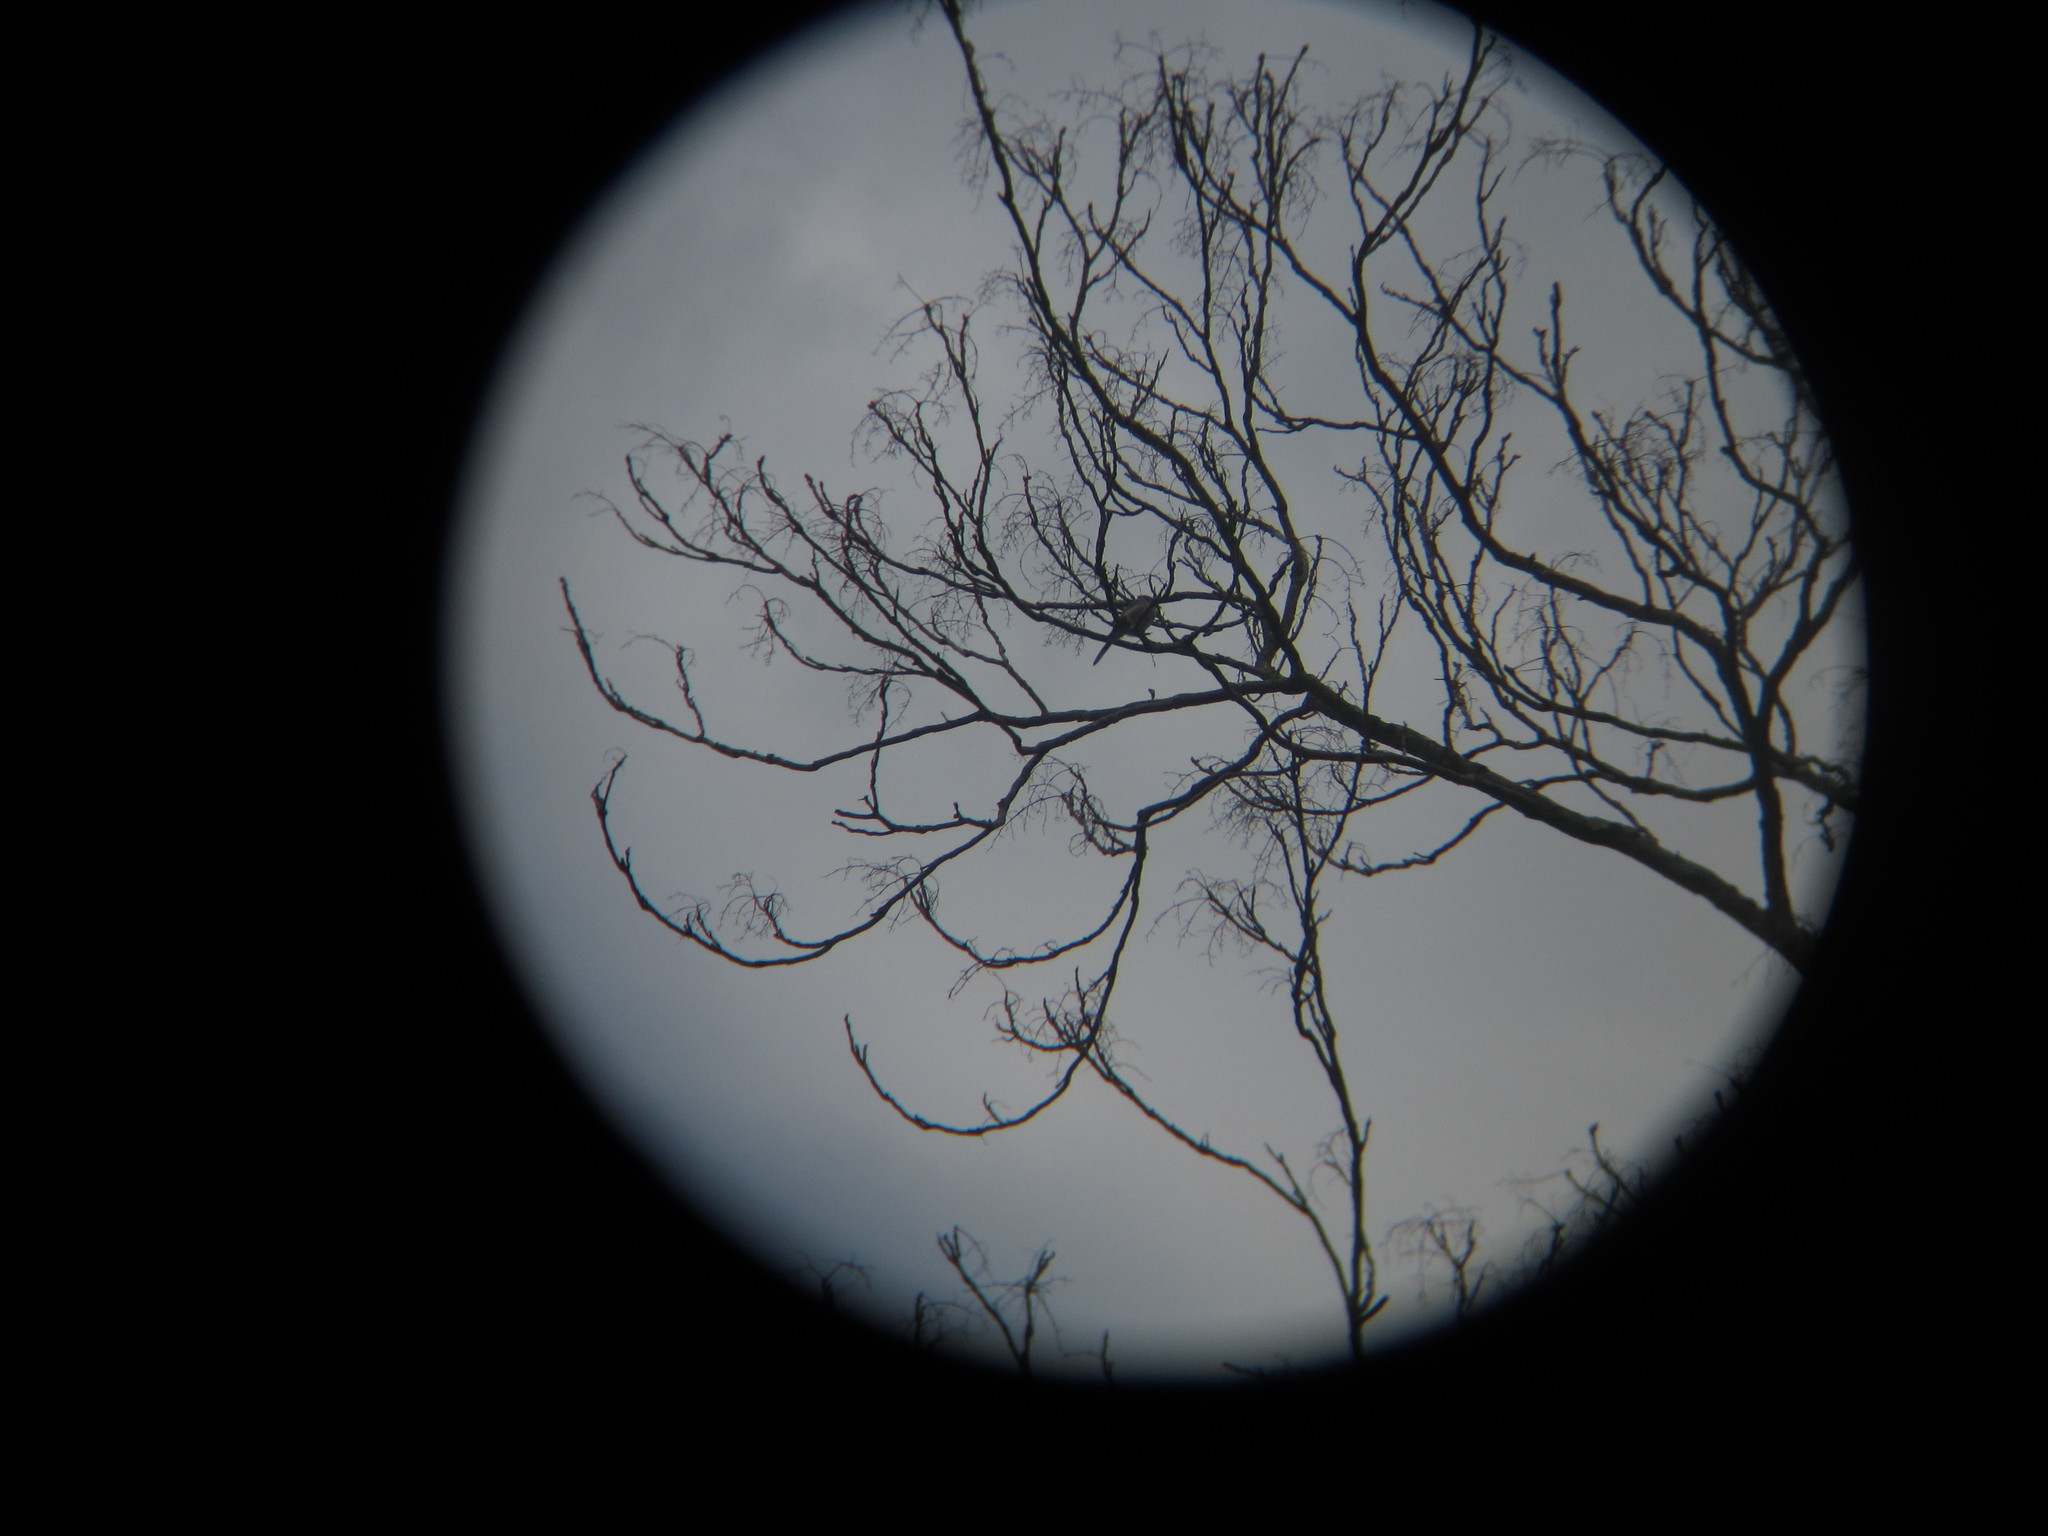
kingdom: Animalia
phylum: Chordata
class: Aves
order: Passeriformes
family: Corvidae
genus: Cyanocitta
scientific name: Cyanocitta cristata
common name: Blue jay
